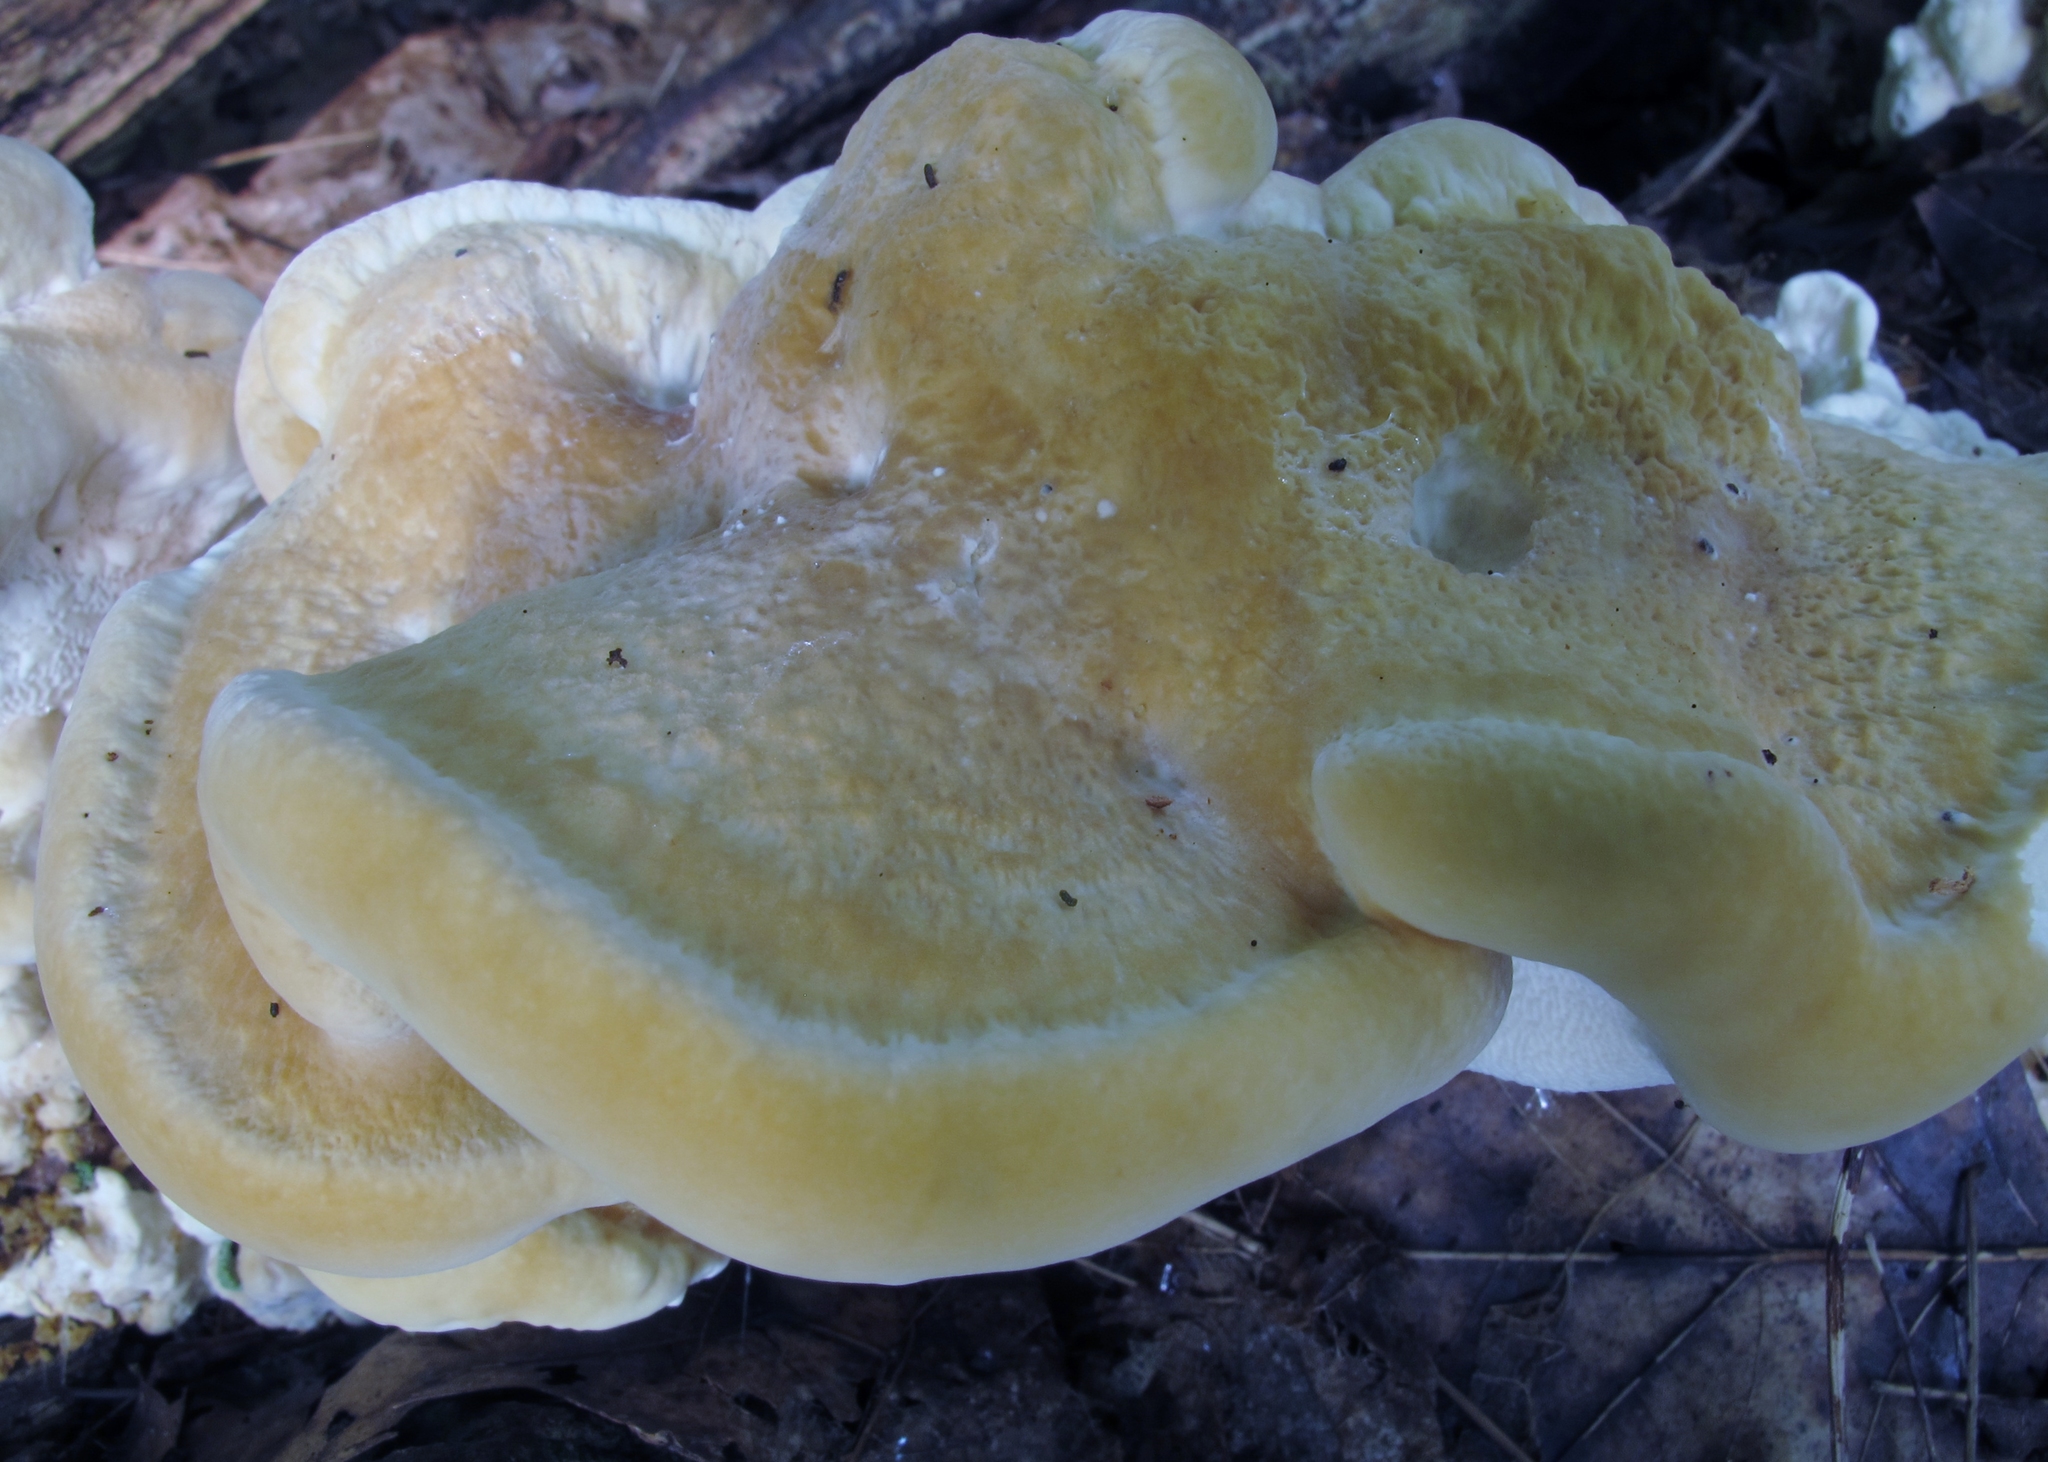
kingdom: Fungi
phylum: Basidiomycota
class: Agaricomycetes
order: Russulales
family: Bondarzewiaceae
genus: Bondarzewia
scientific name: Bondarzewia berkeleyi
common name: Berkeley's polypore
